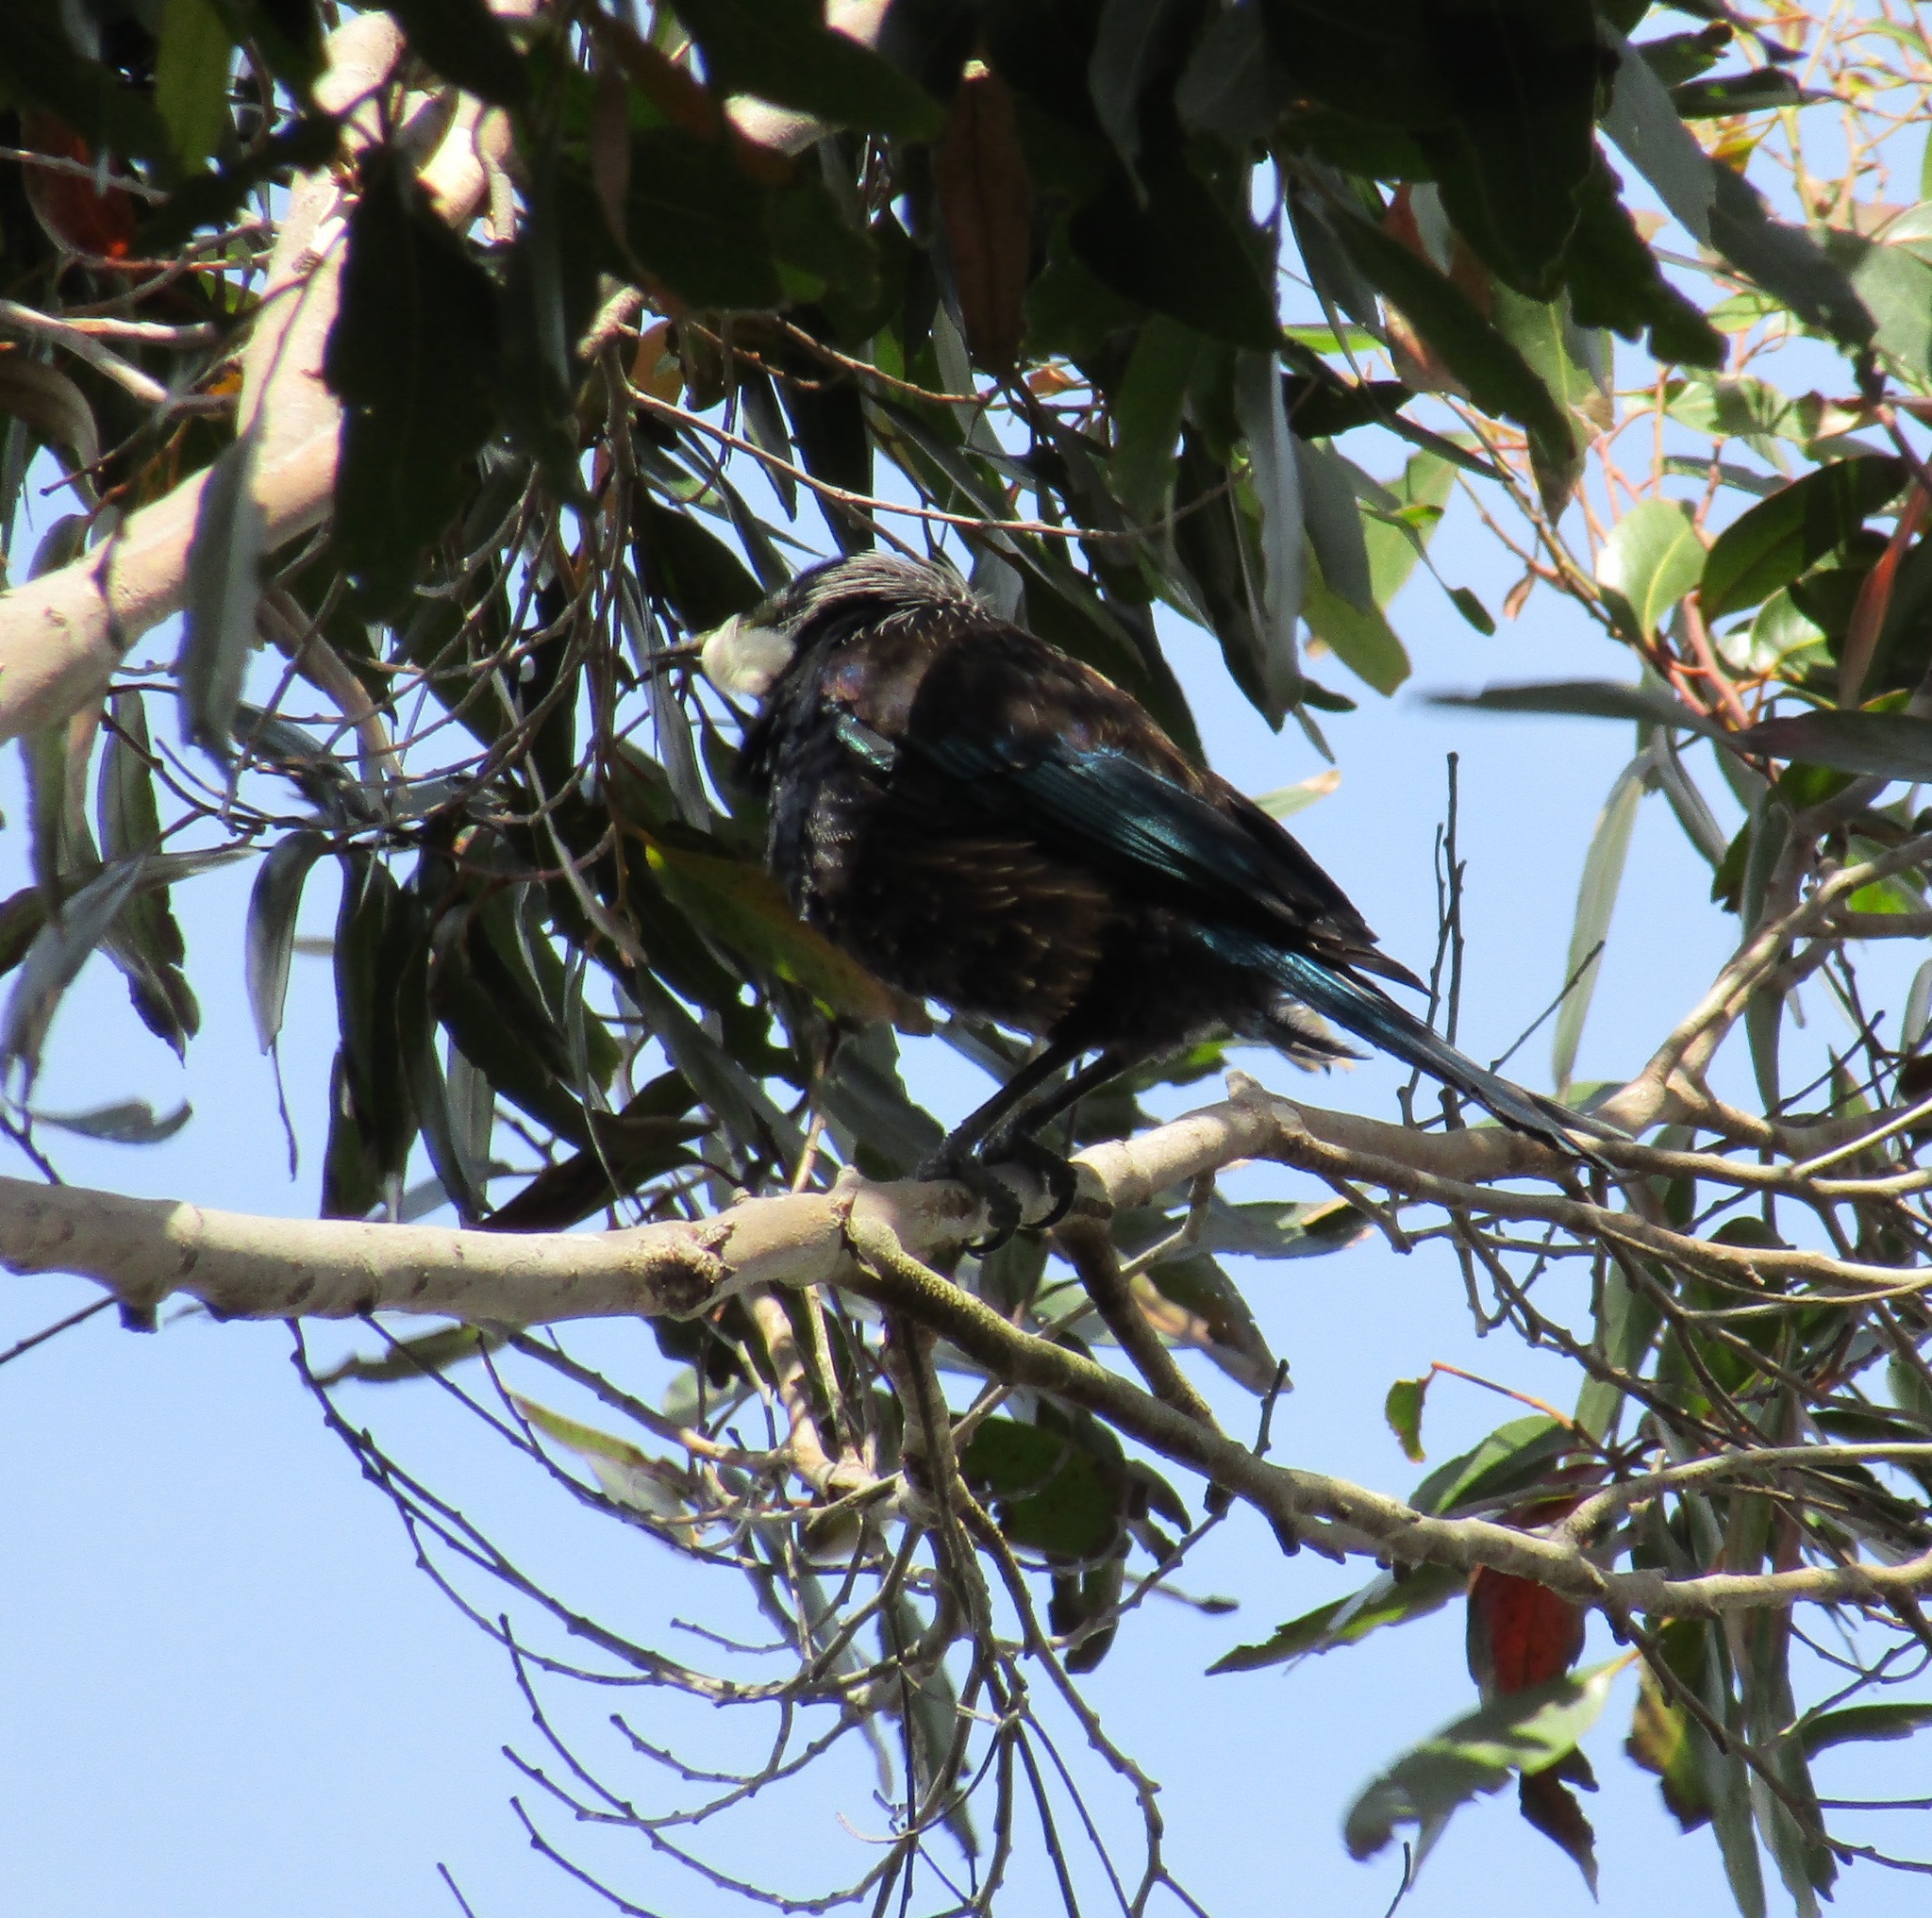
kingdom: Animalia
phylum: Chordata
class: Aves
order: Passeriformes
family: Meliphagidae
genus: Prosthemadera
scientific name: Prosthemadera novaeseelandiae
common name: Tui
